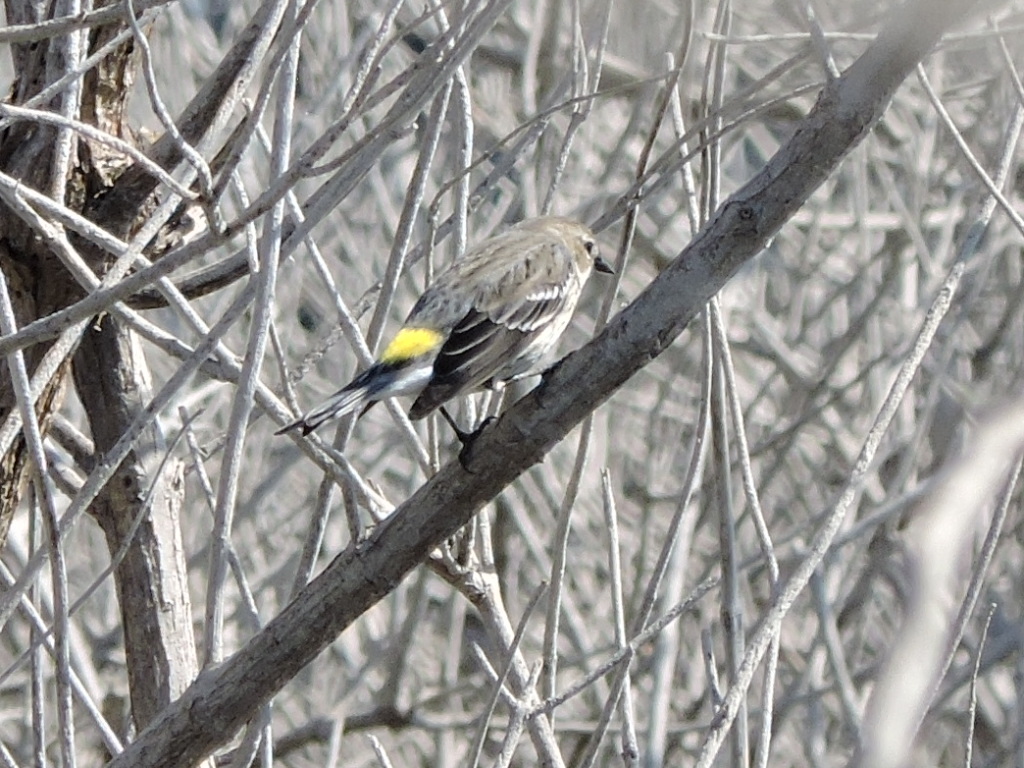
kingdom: Animalia
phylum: Chordata
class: Aves
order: Passeriformes
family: Parulidae
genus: Setophaga
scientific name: Setophaga coronata
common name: Myrtle warbler
